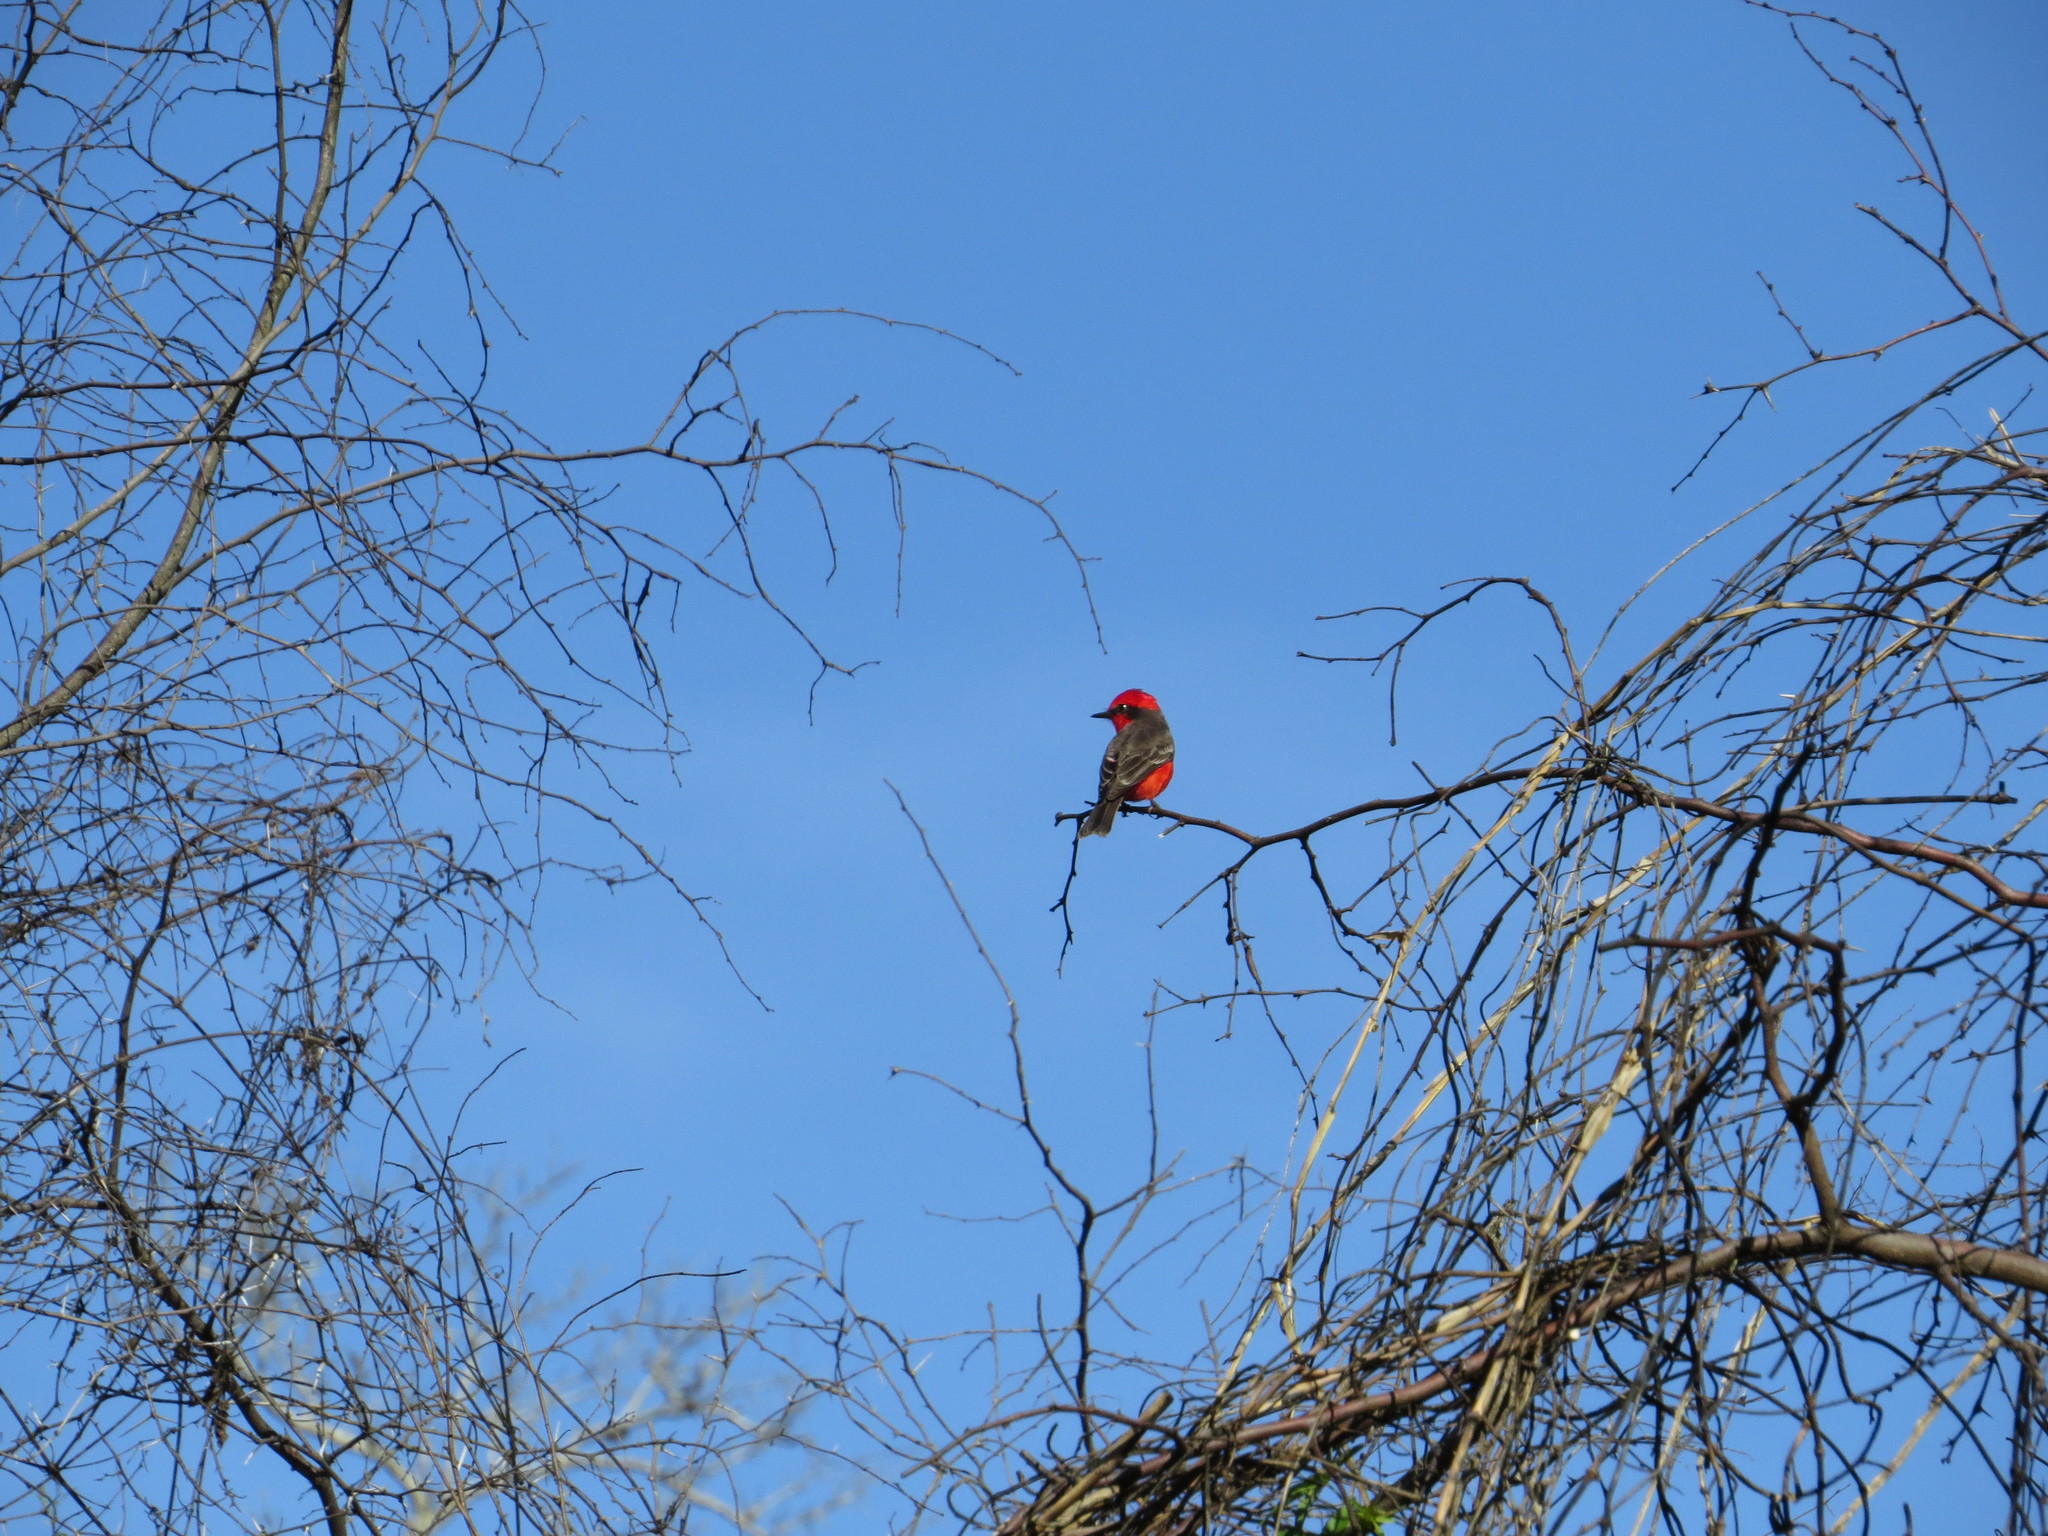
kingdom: Animalia
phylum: Chordata
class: Aves
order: Passeriformes
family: Tyrannidae
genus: Pyrocephalus
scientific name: Pyrocephalus rubinus
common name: Vermilion flycatcher
